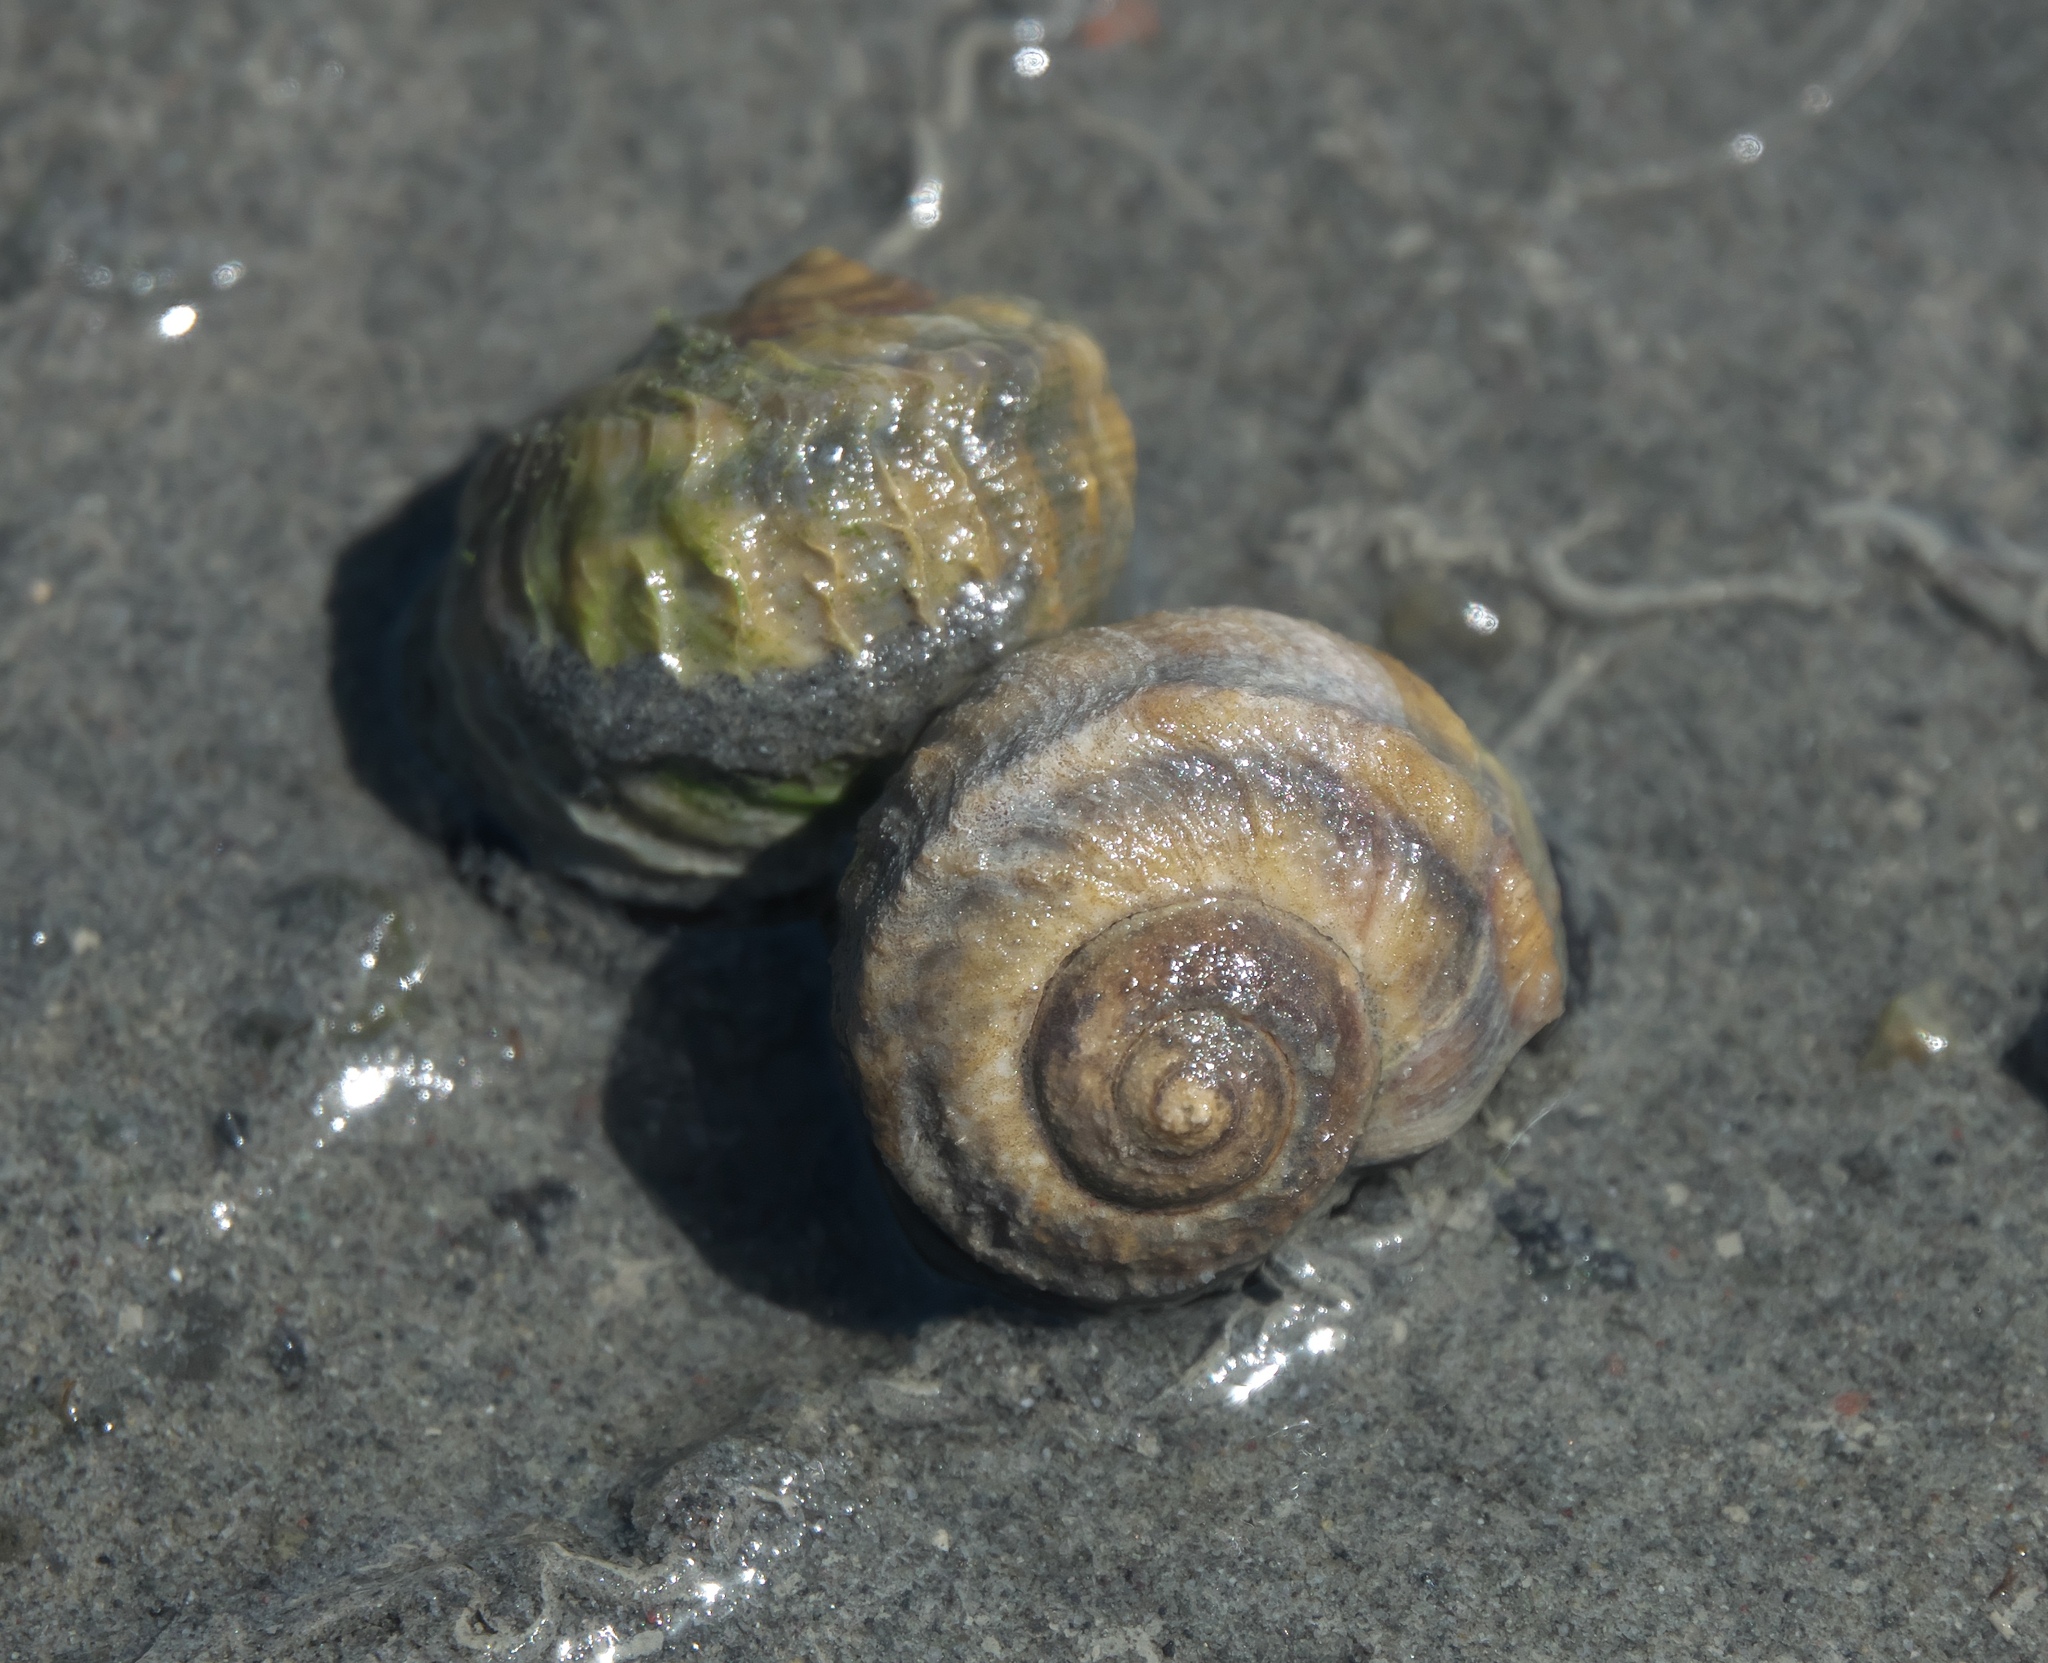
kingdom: Animalia
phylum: Mollusca
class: Gastropoda
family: Amphibolidae
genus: Amphibola
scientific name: Amphibola crenata
